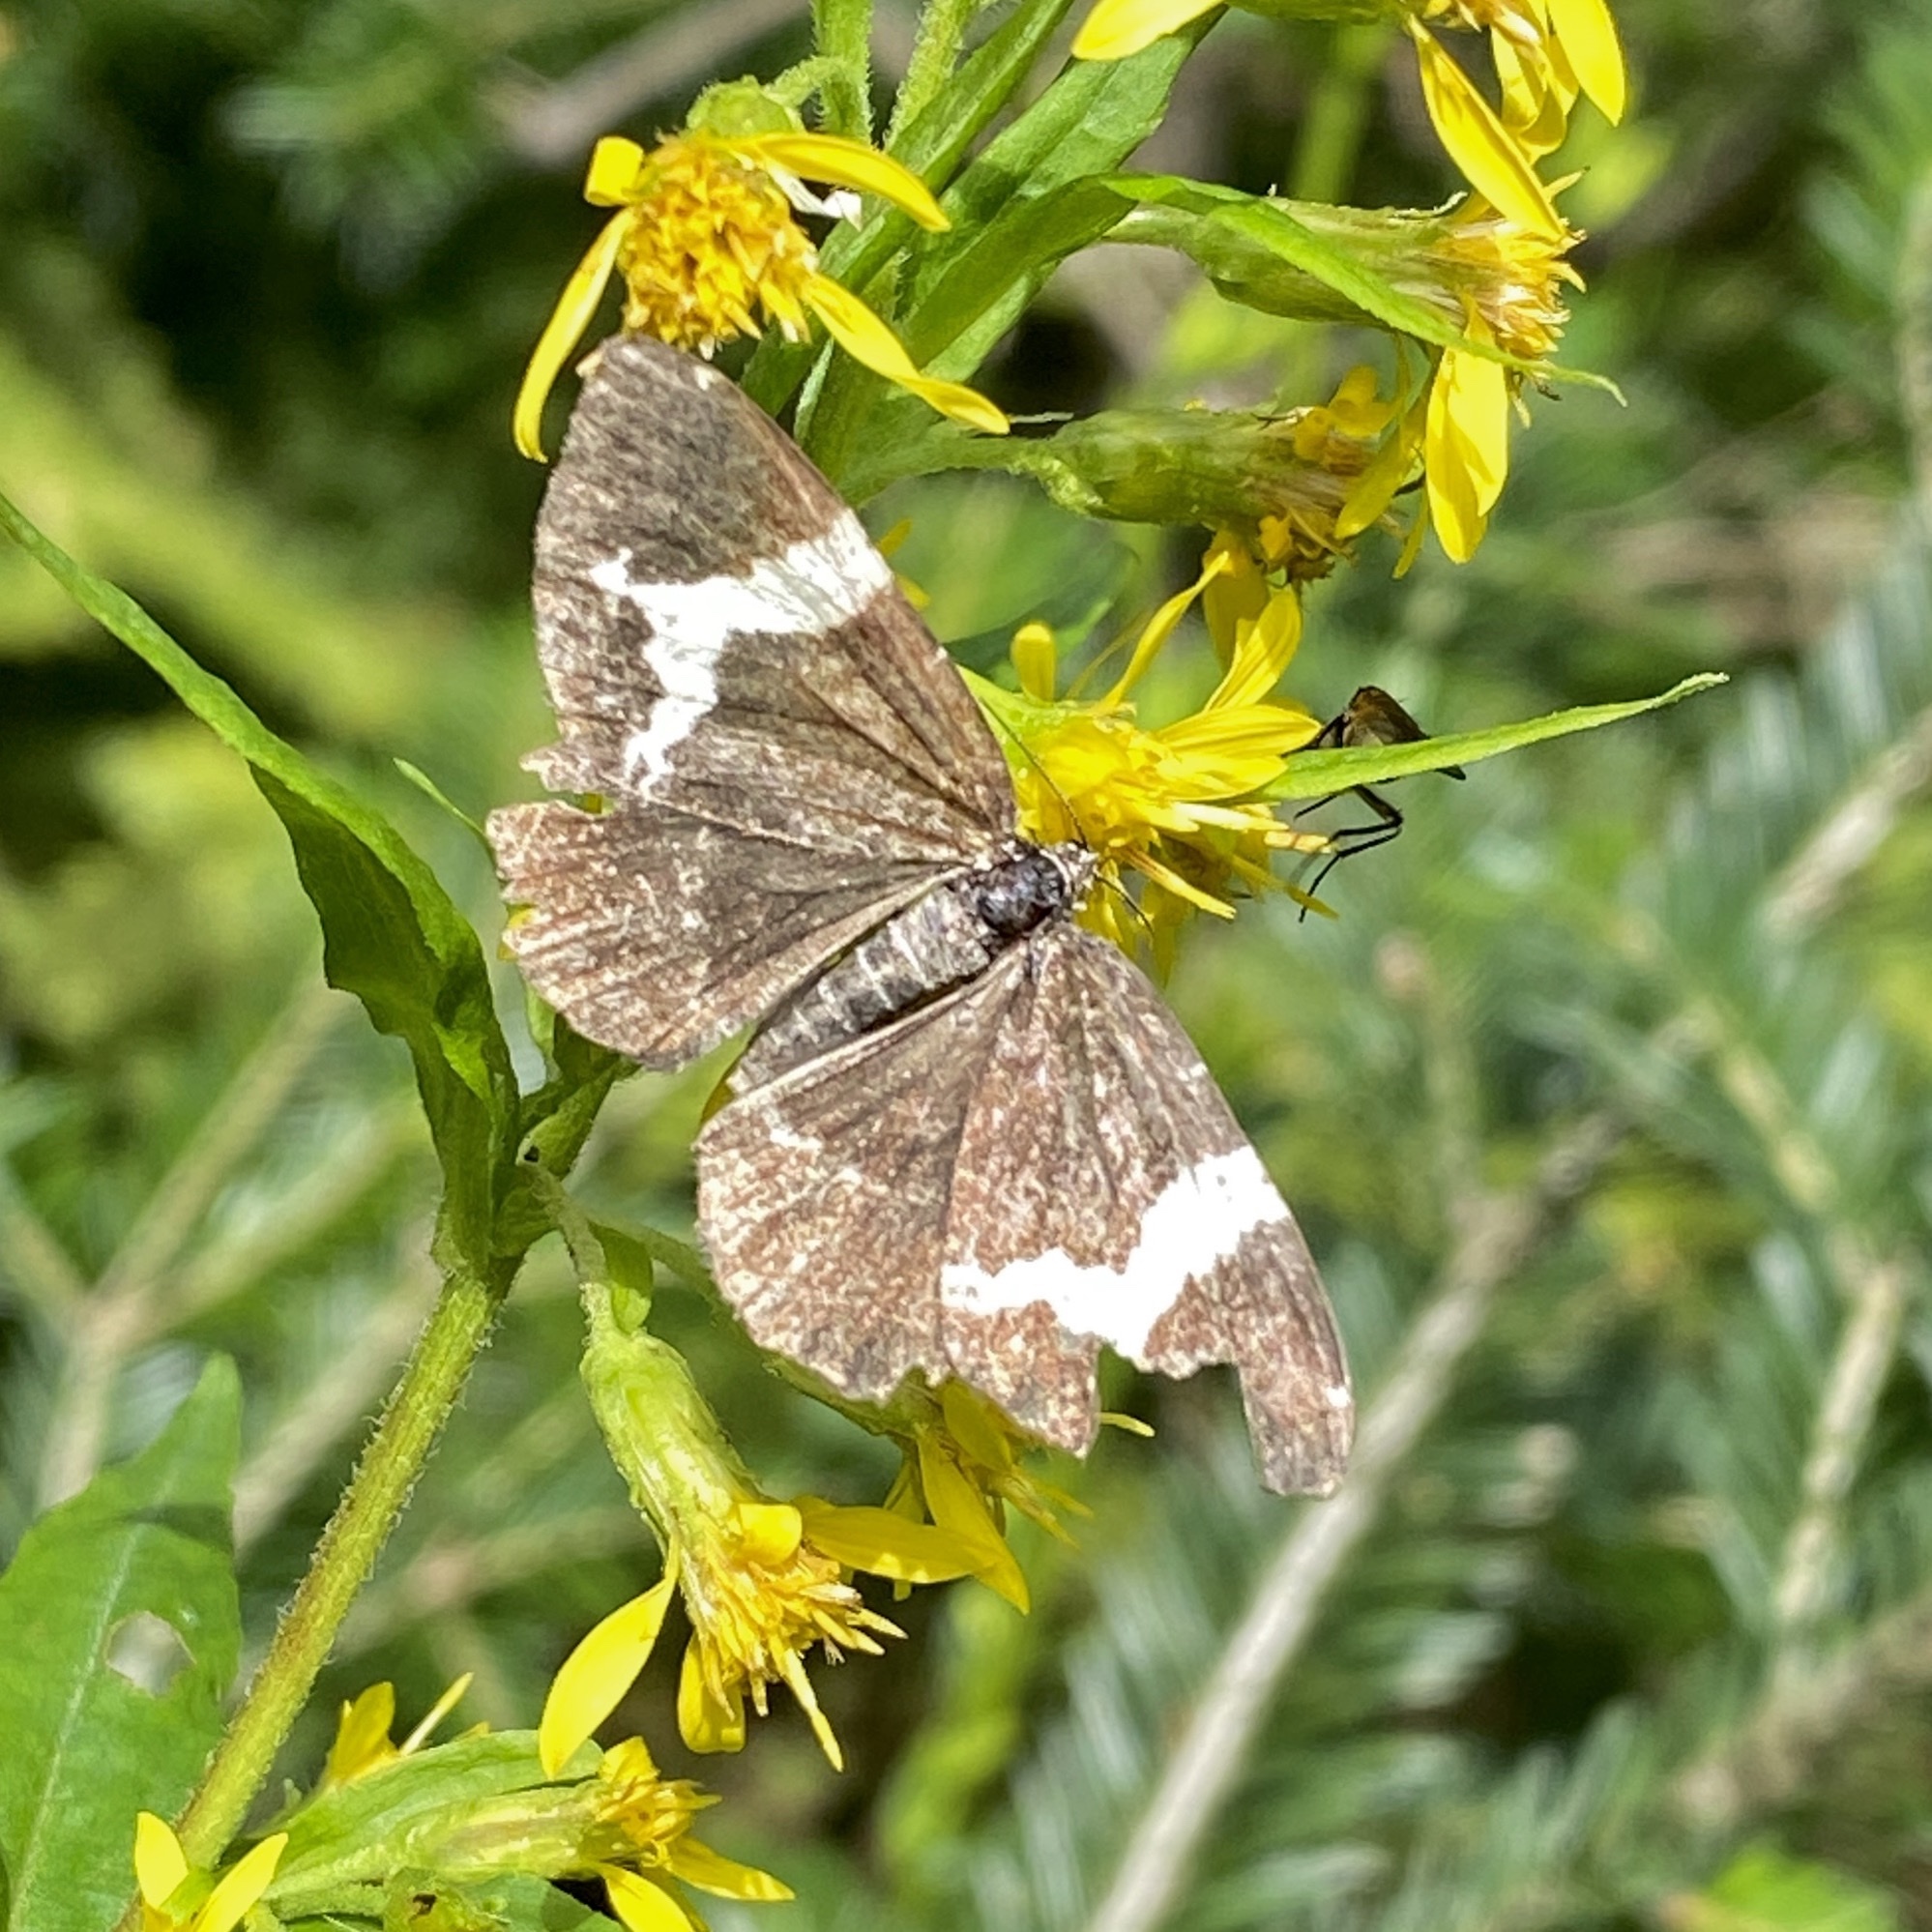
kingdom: Animalia
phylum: Arthropoda
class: Insecta
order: Lepidoptera
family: Geometridae
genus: Rheumaptera
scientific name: Rheumaptera
